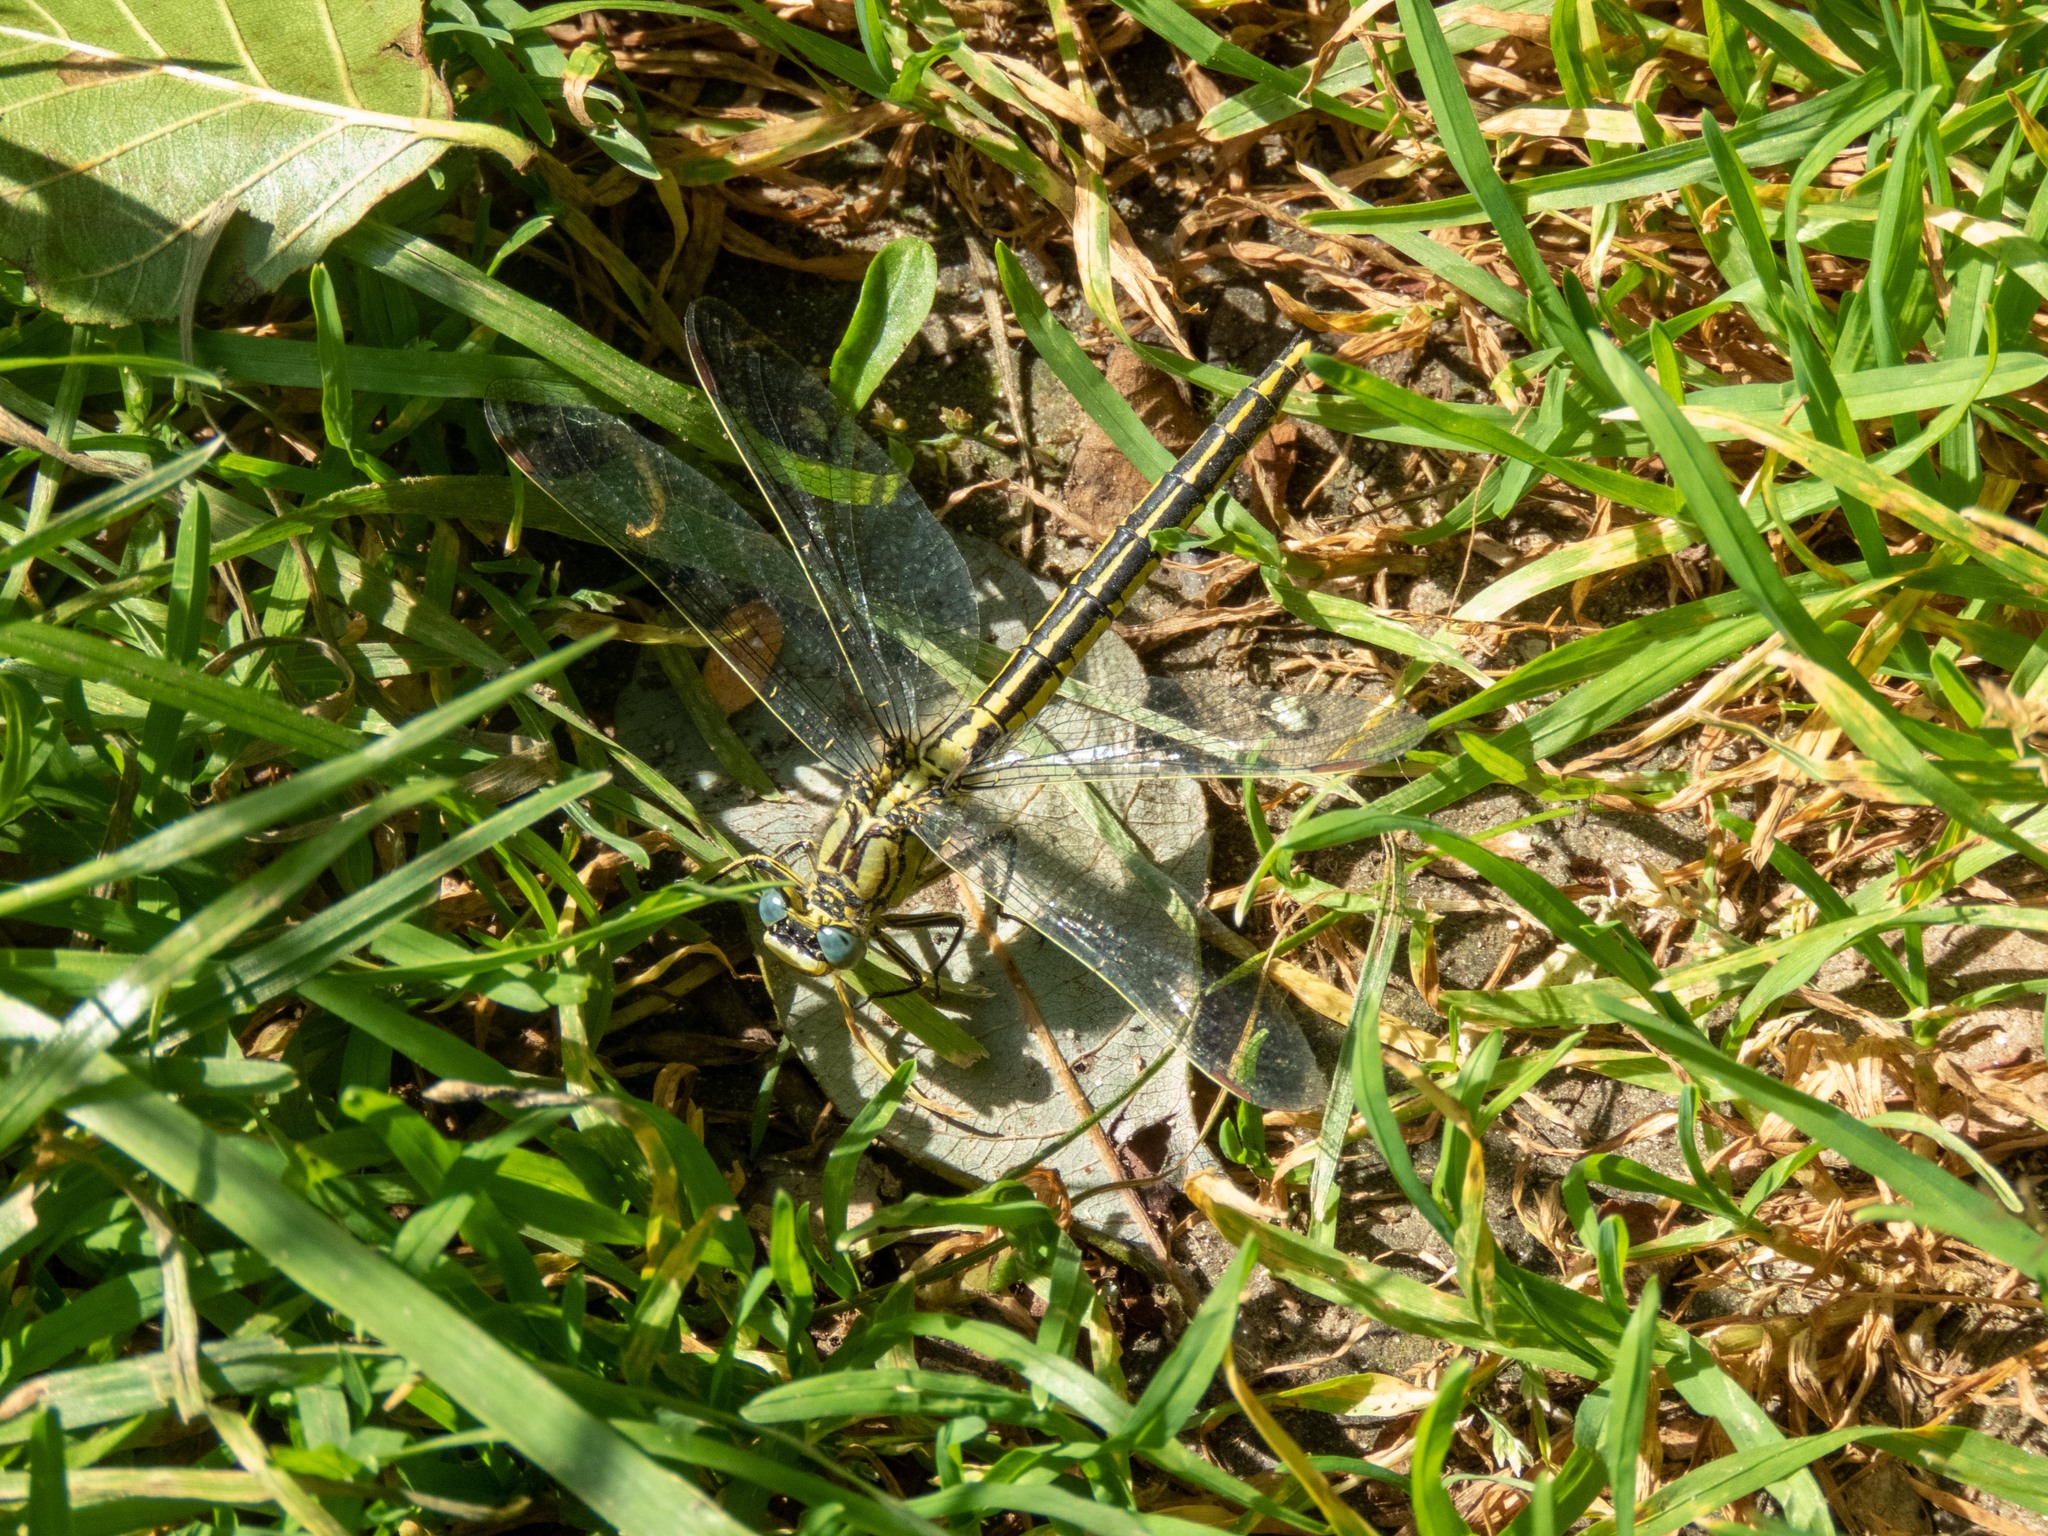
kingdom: Animalia
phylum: Arthropoda
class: Insecta
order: Odonata
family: Gomphidae
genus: Gomphus
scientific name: Gomphus pulchellus
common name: Western clubtail
